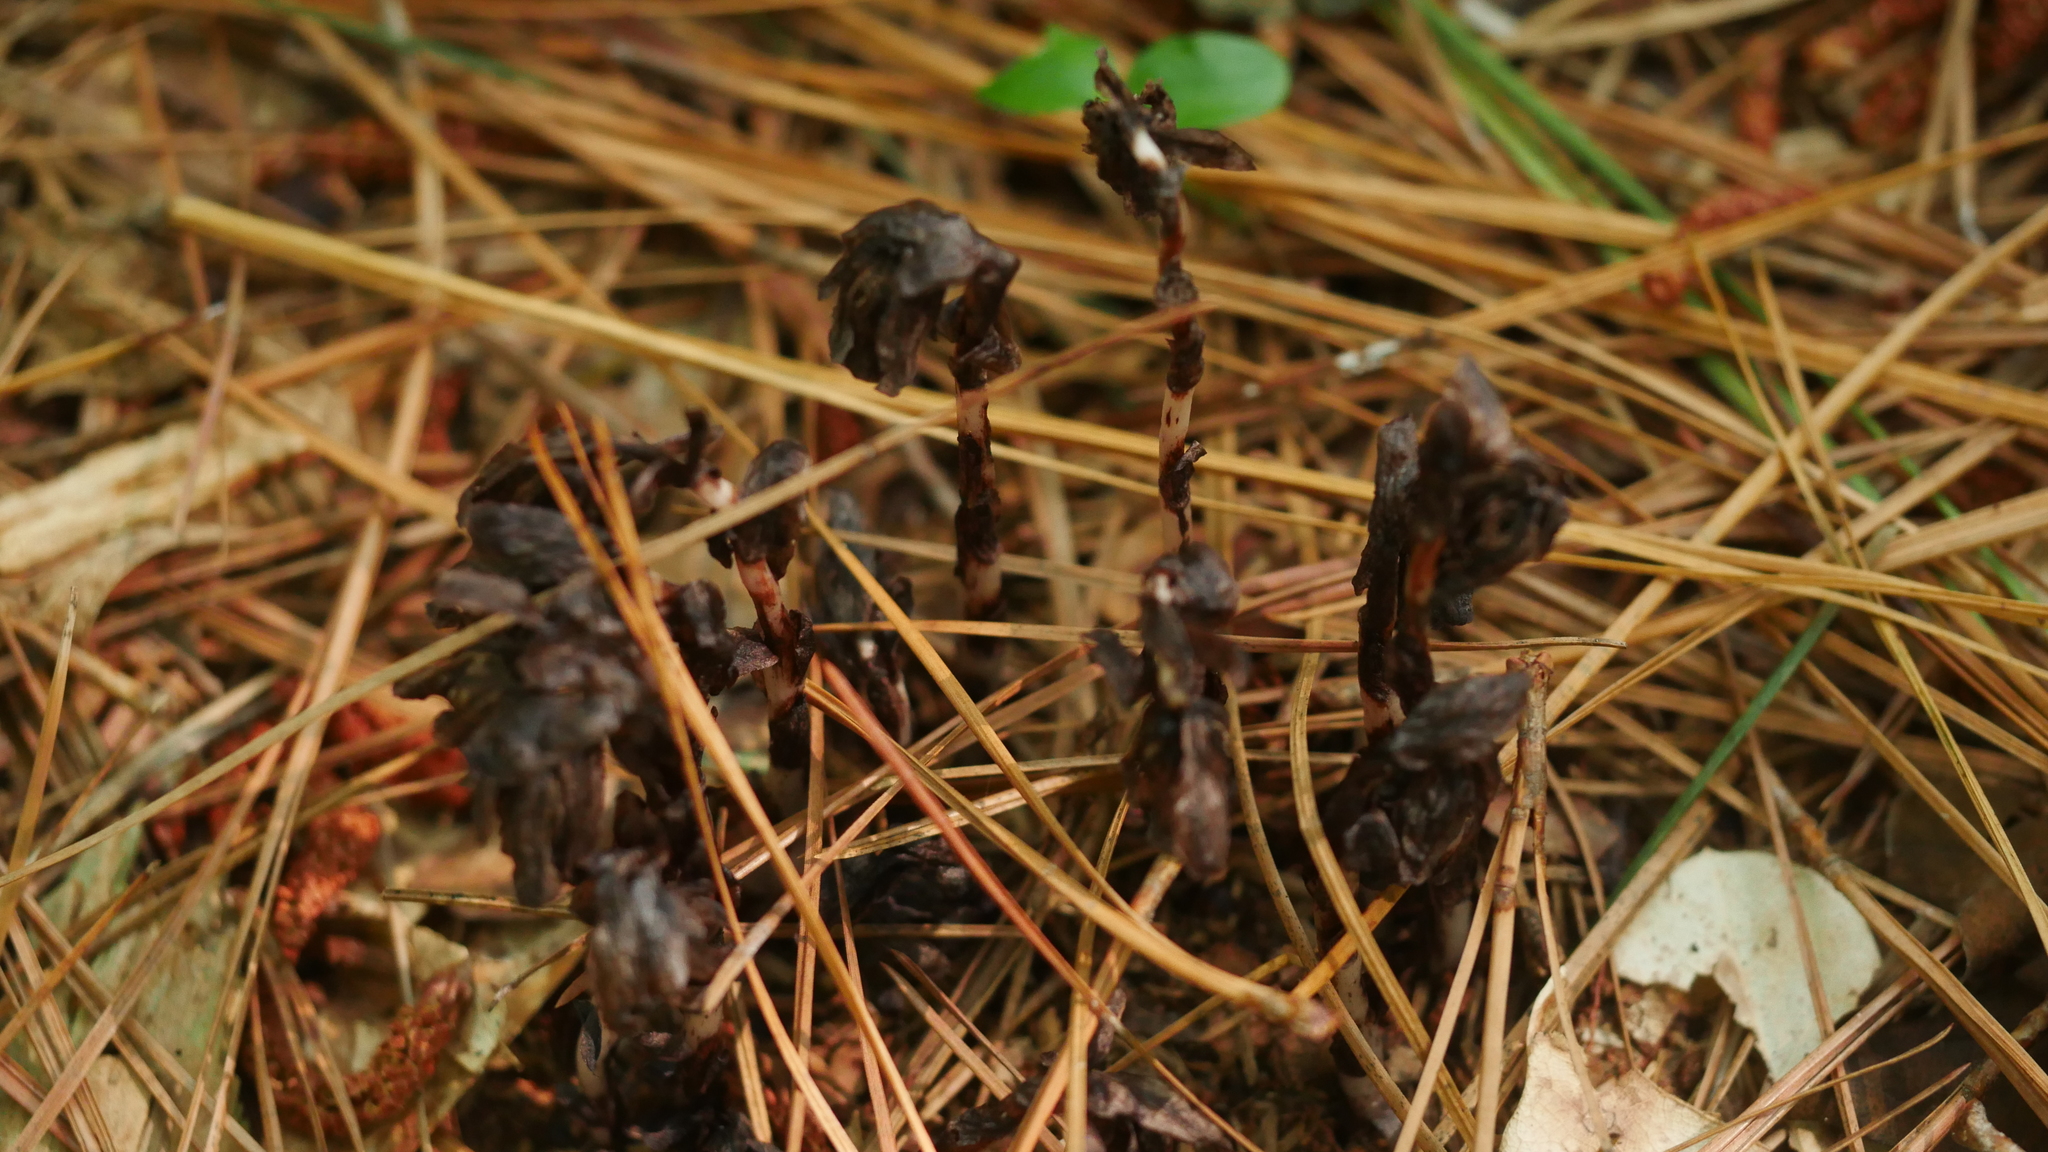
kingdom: Plantae
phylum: Tracheophyta
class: Magnoliopsida
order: Ericales
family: Ericaceae
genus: Monotropa
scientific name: Monotropa uniflora
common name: Convulsion root
